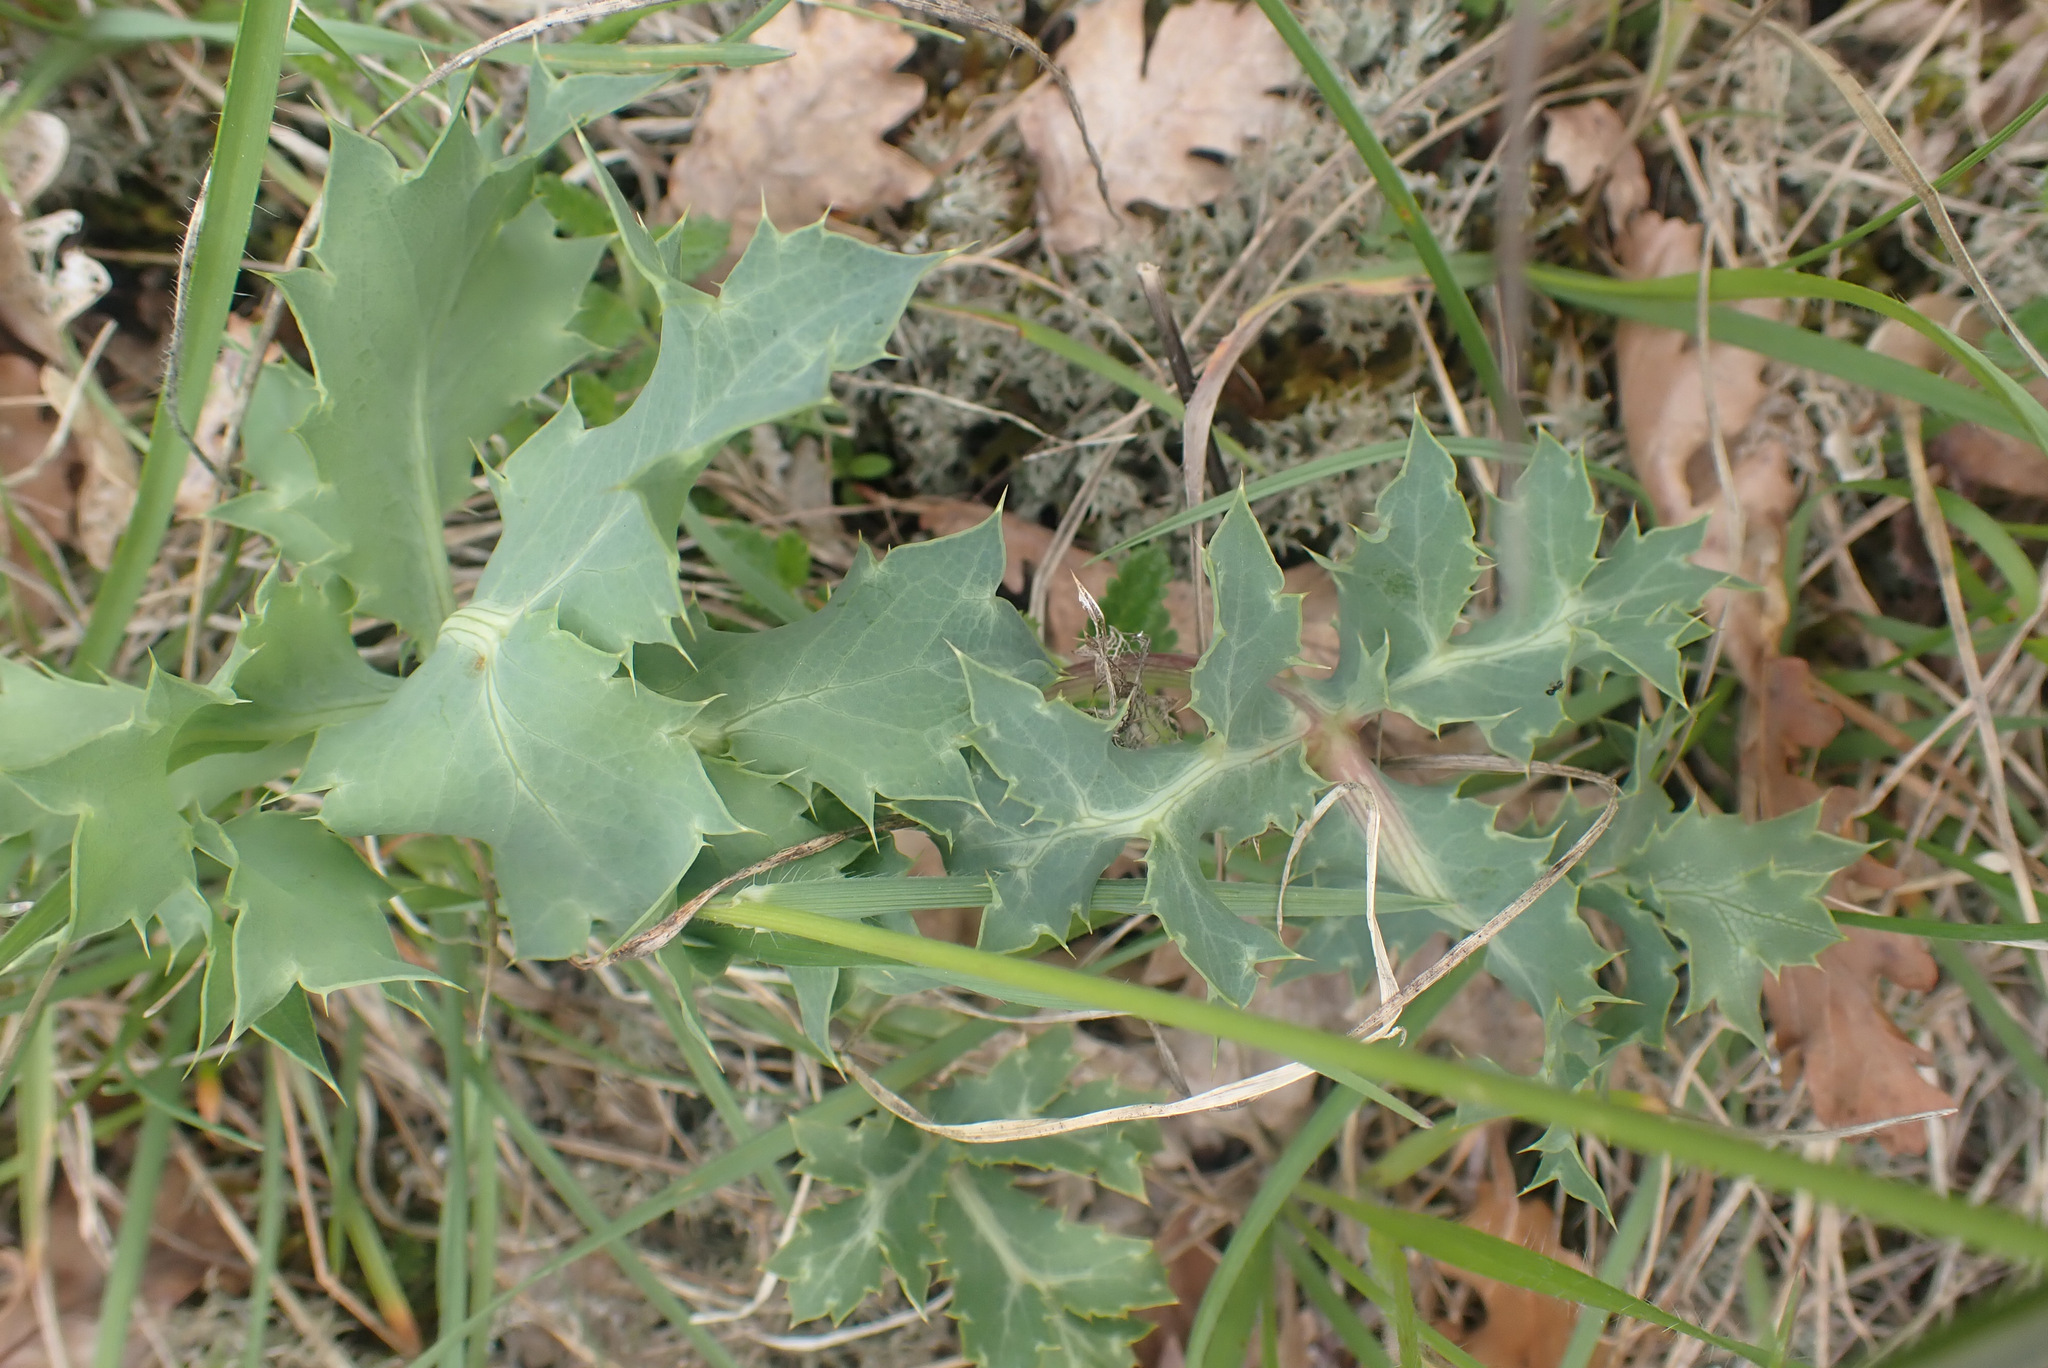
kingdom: Plantae
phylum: Tracheophyta
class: Magnoliopsida
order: Apiales
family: Apiaceae
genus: Eryngium
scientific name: Eryngium campestre
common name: Field eryngo
